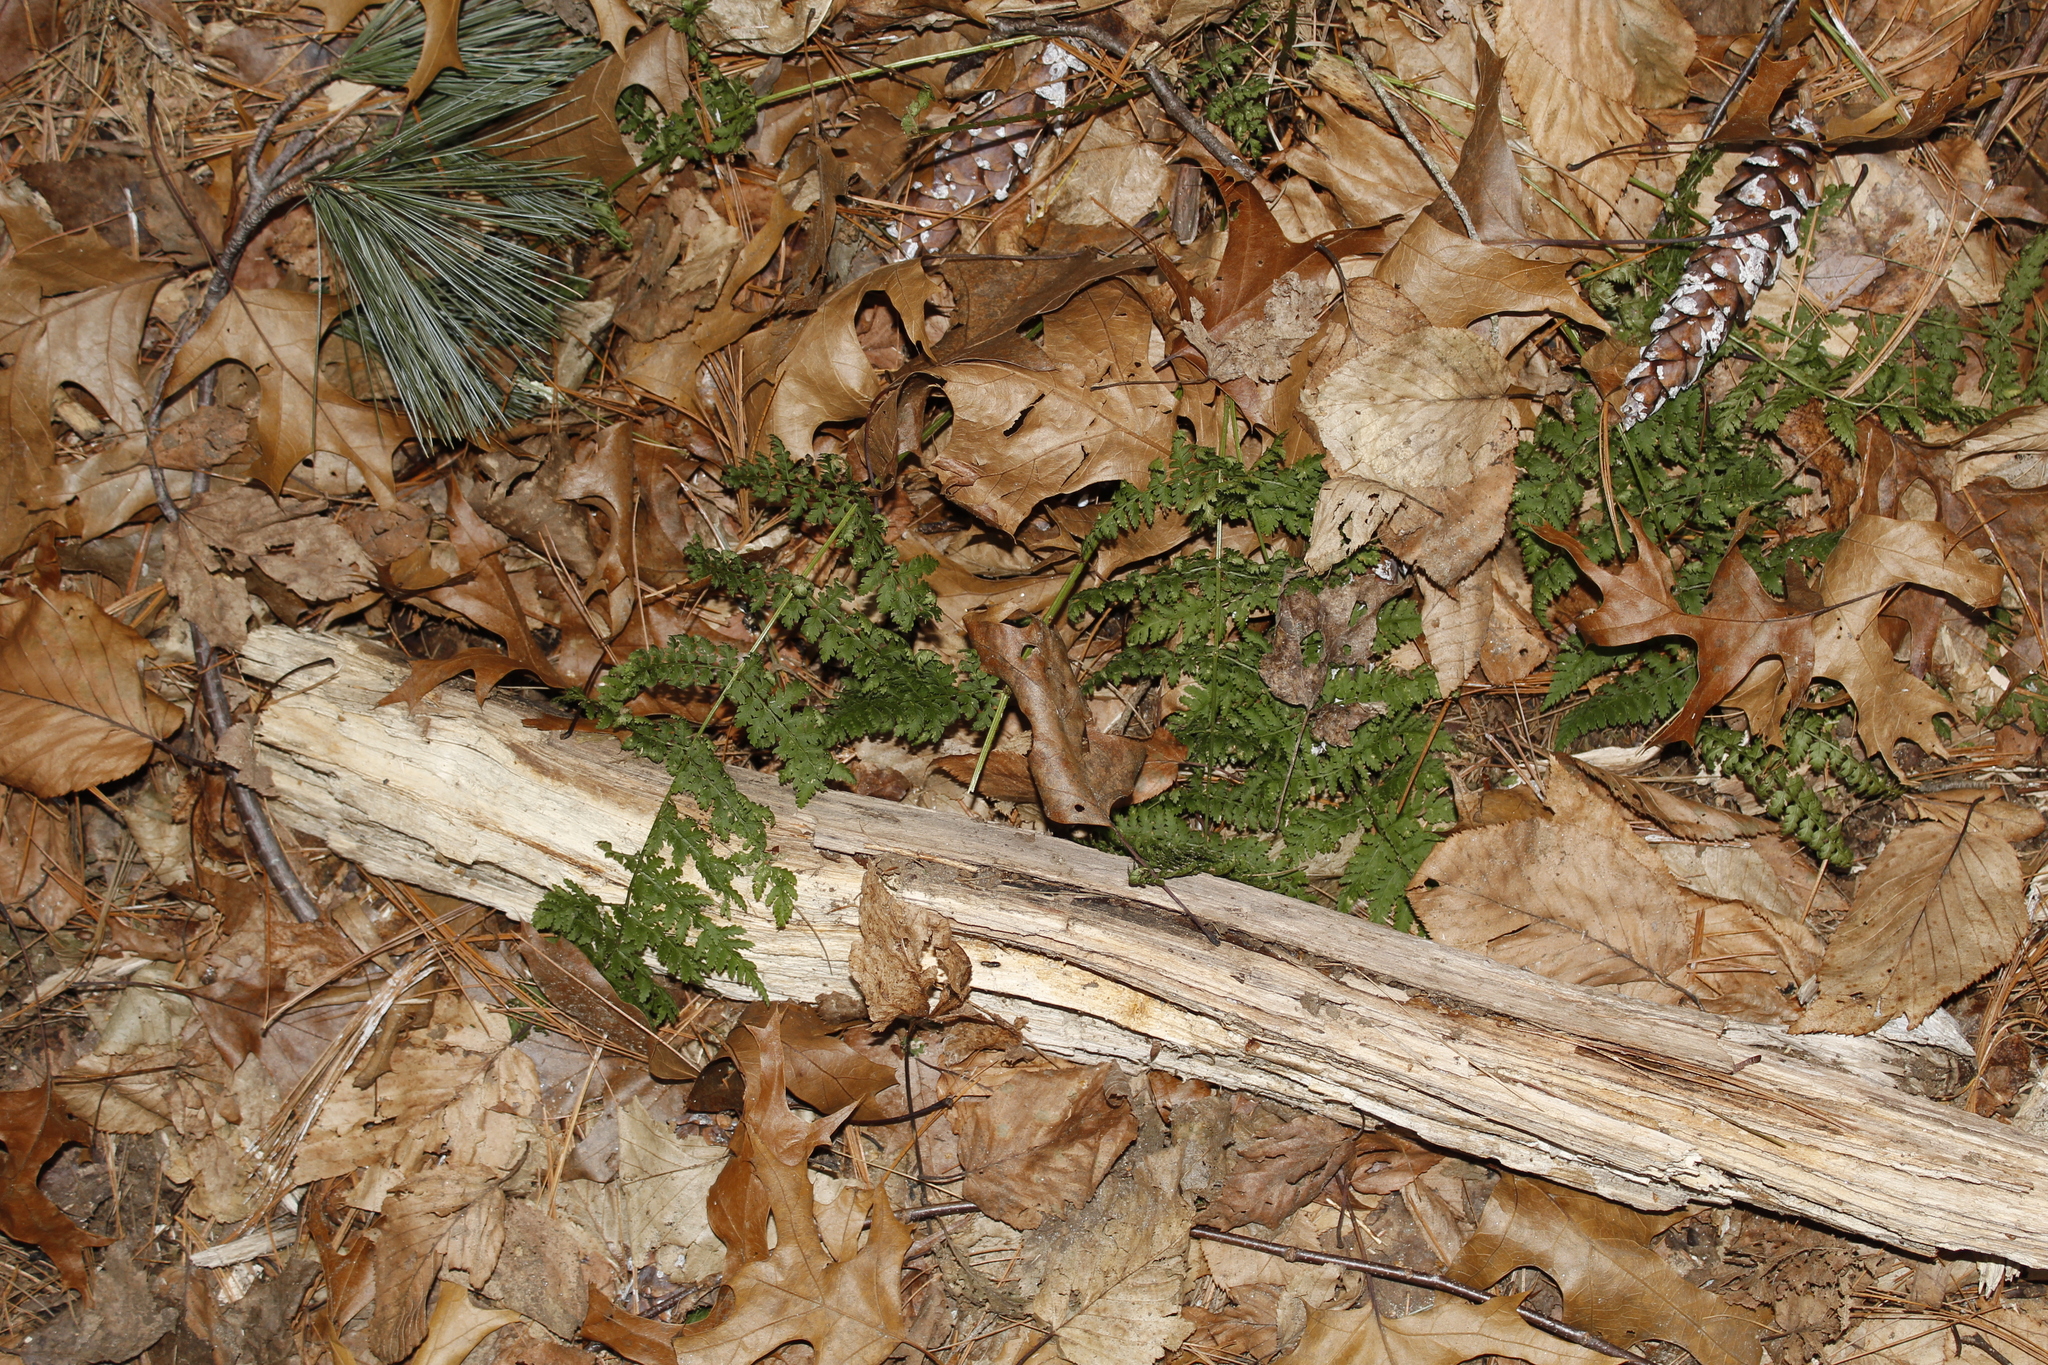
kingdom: Plantae
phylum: Tracheophyta
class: Polypodiopsida
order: Polypodiales
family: Dryopteridaceae
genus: Dryopteris
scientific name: Dryopteris intermedia
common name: Evergreen wood fern
